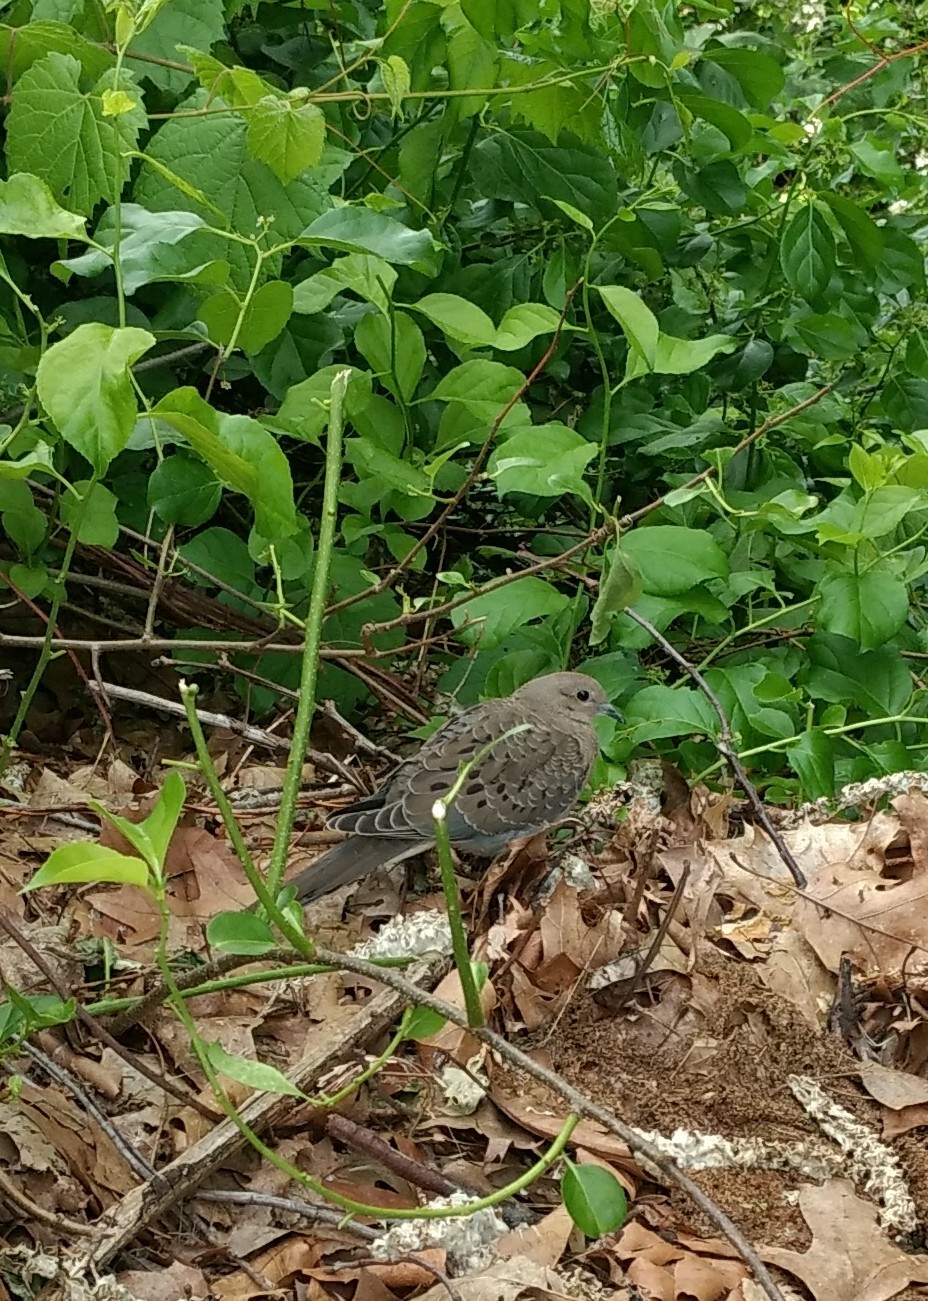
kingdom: Animalia
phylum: Chordata
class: Aves
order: Columbiformes
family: Columbidae
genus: Zenaida
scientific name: Zenaida macroura
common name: Mourning dove
